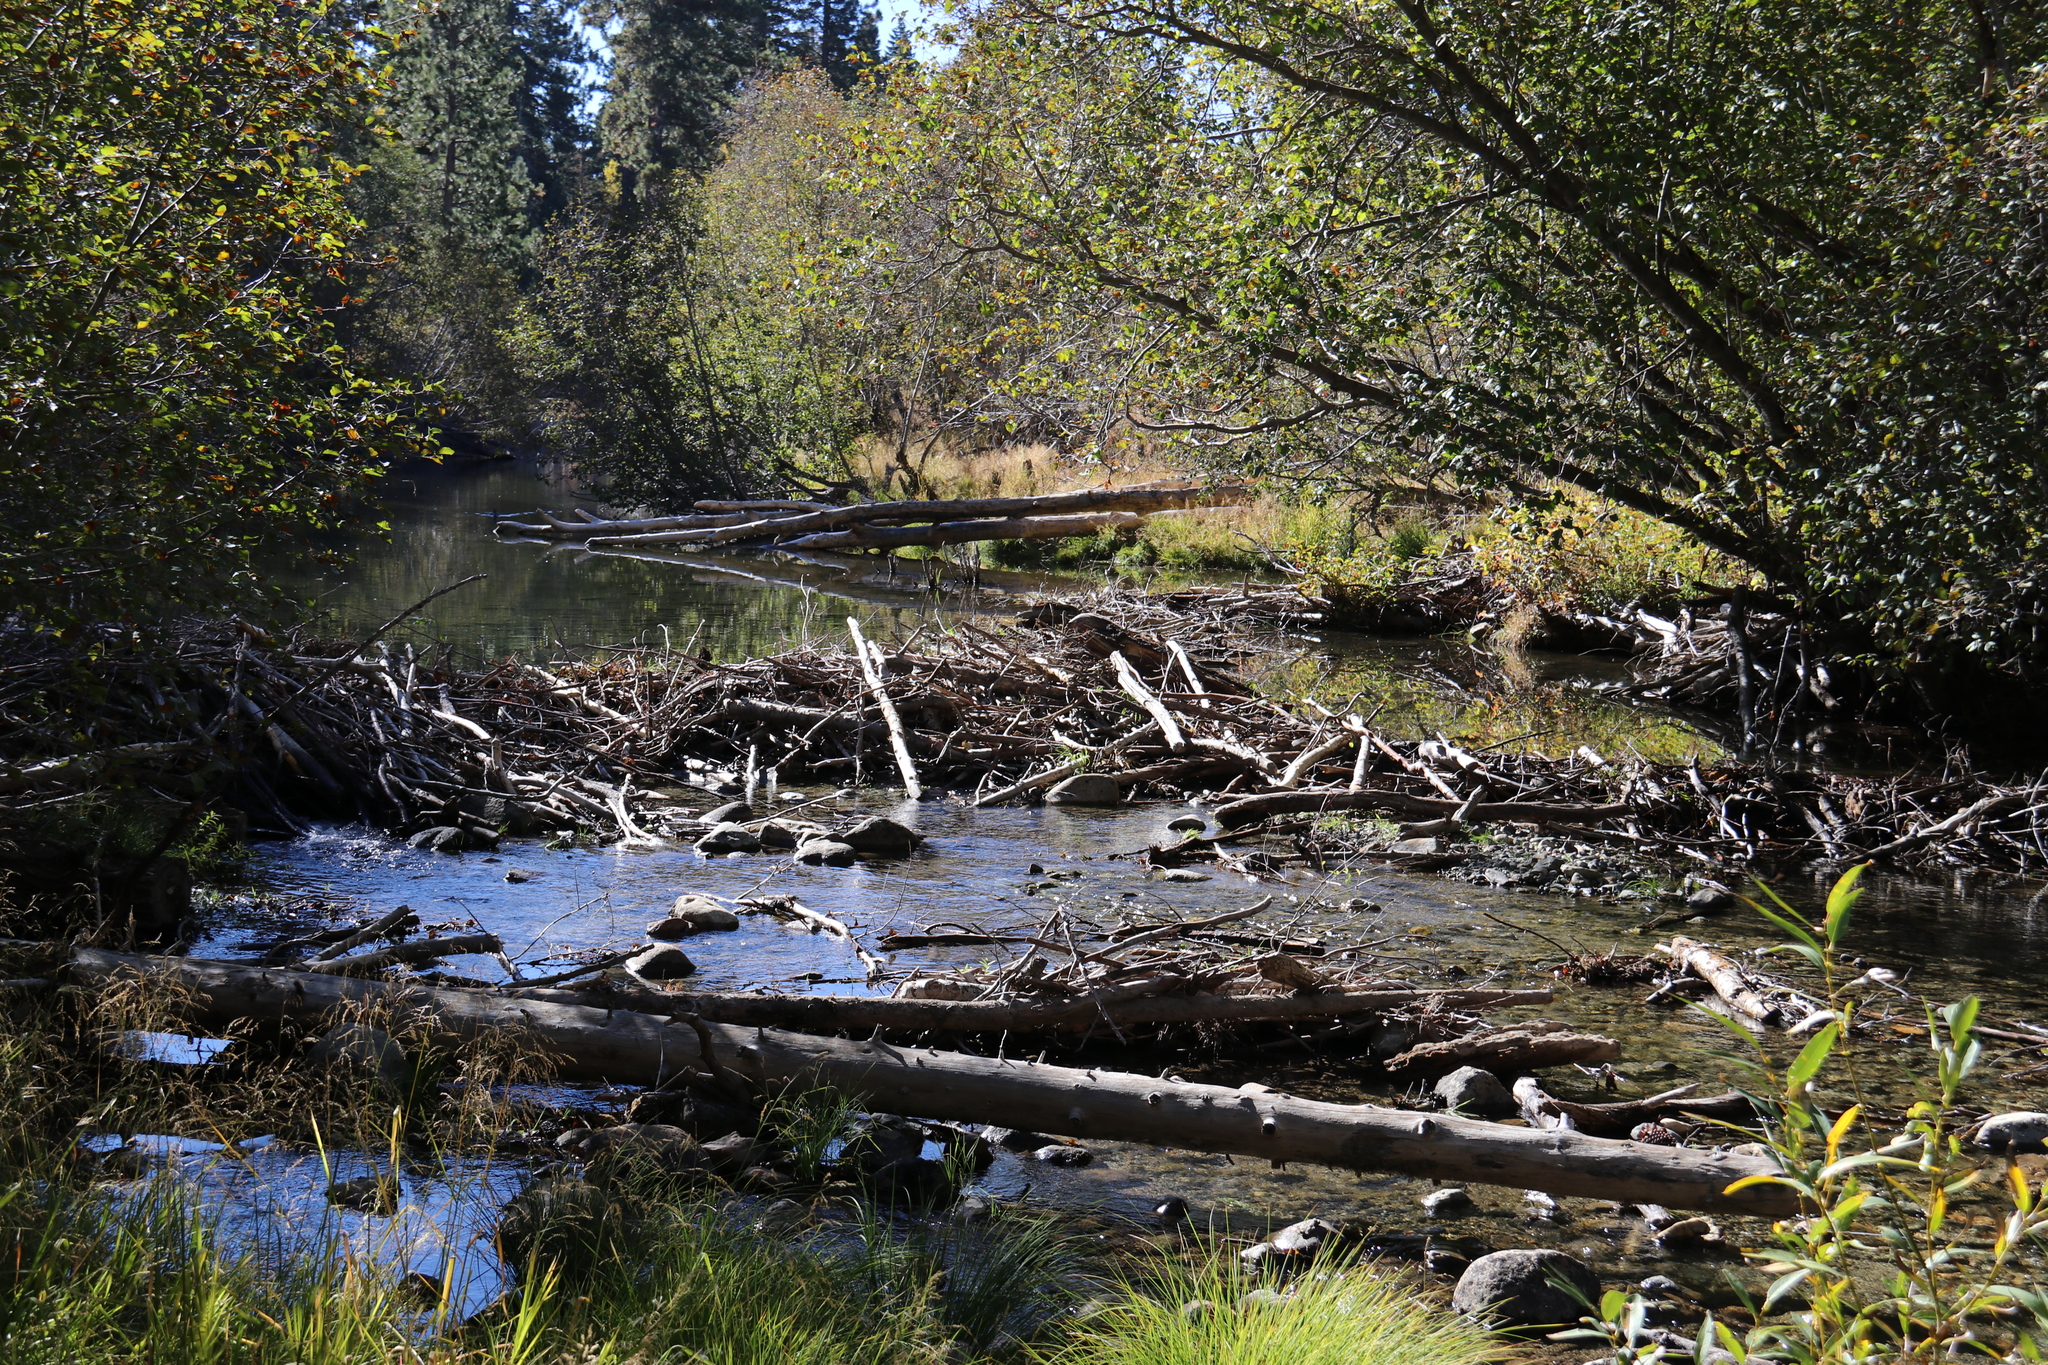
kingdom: Animalia
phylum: Chordata
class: Mammalia
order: Rodentia
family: Castoridae
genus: Castor
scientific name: Castor canadensis
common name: American beaver
